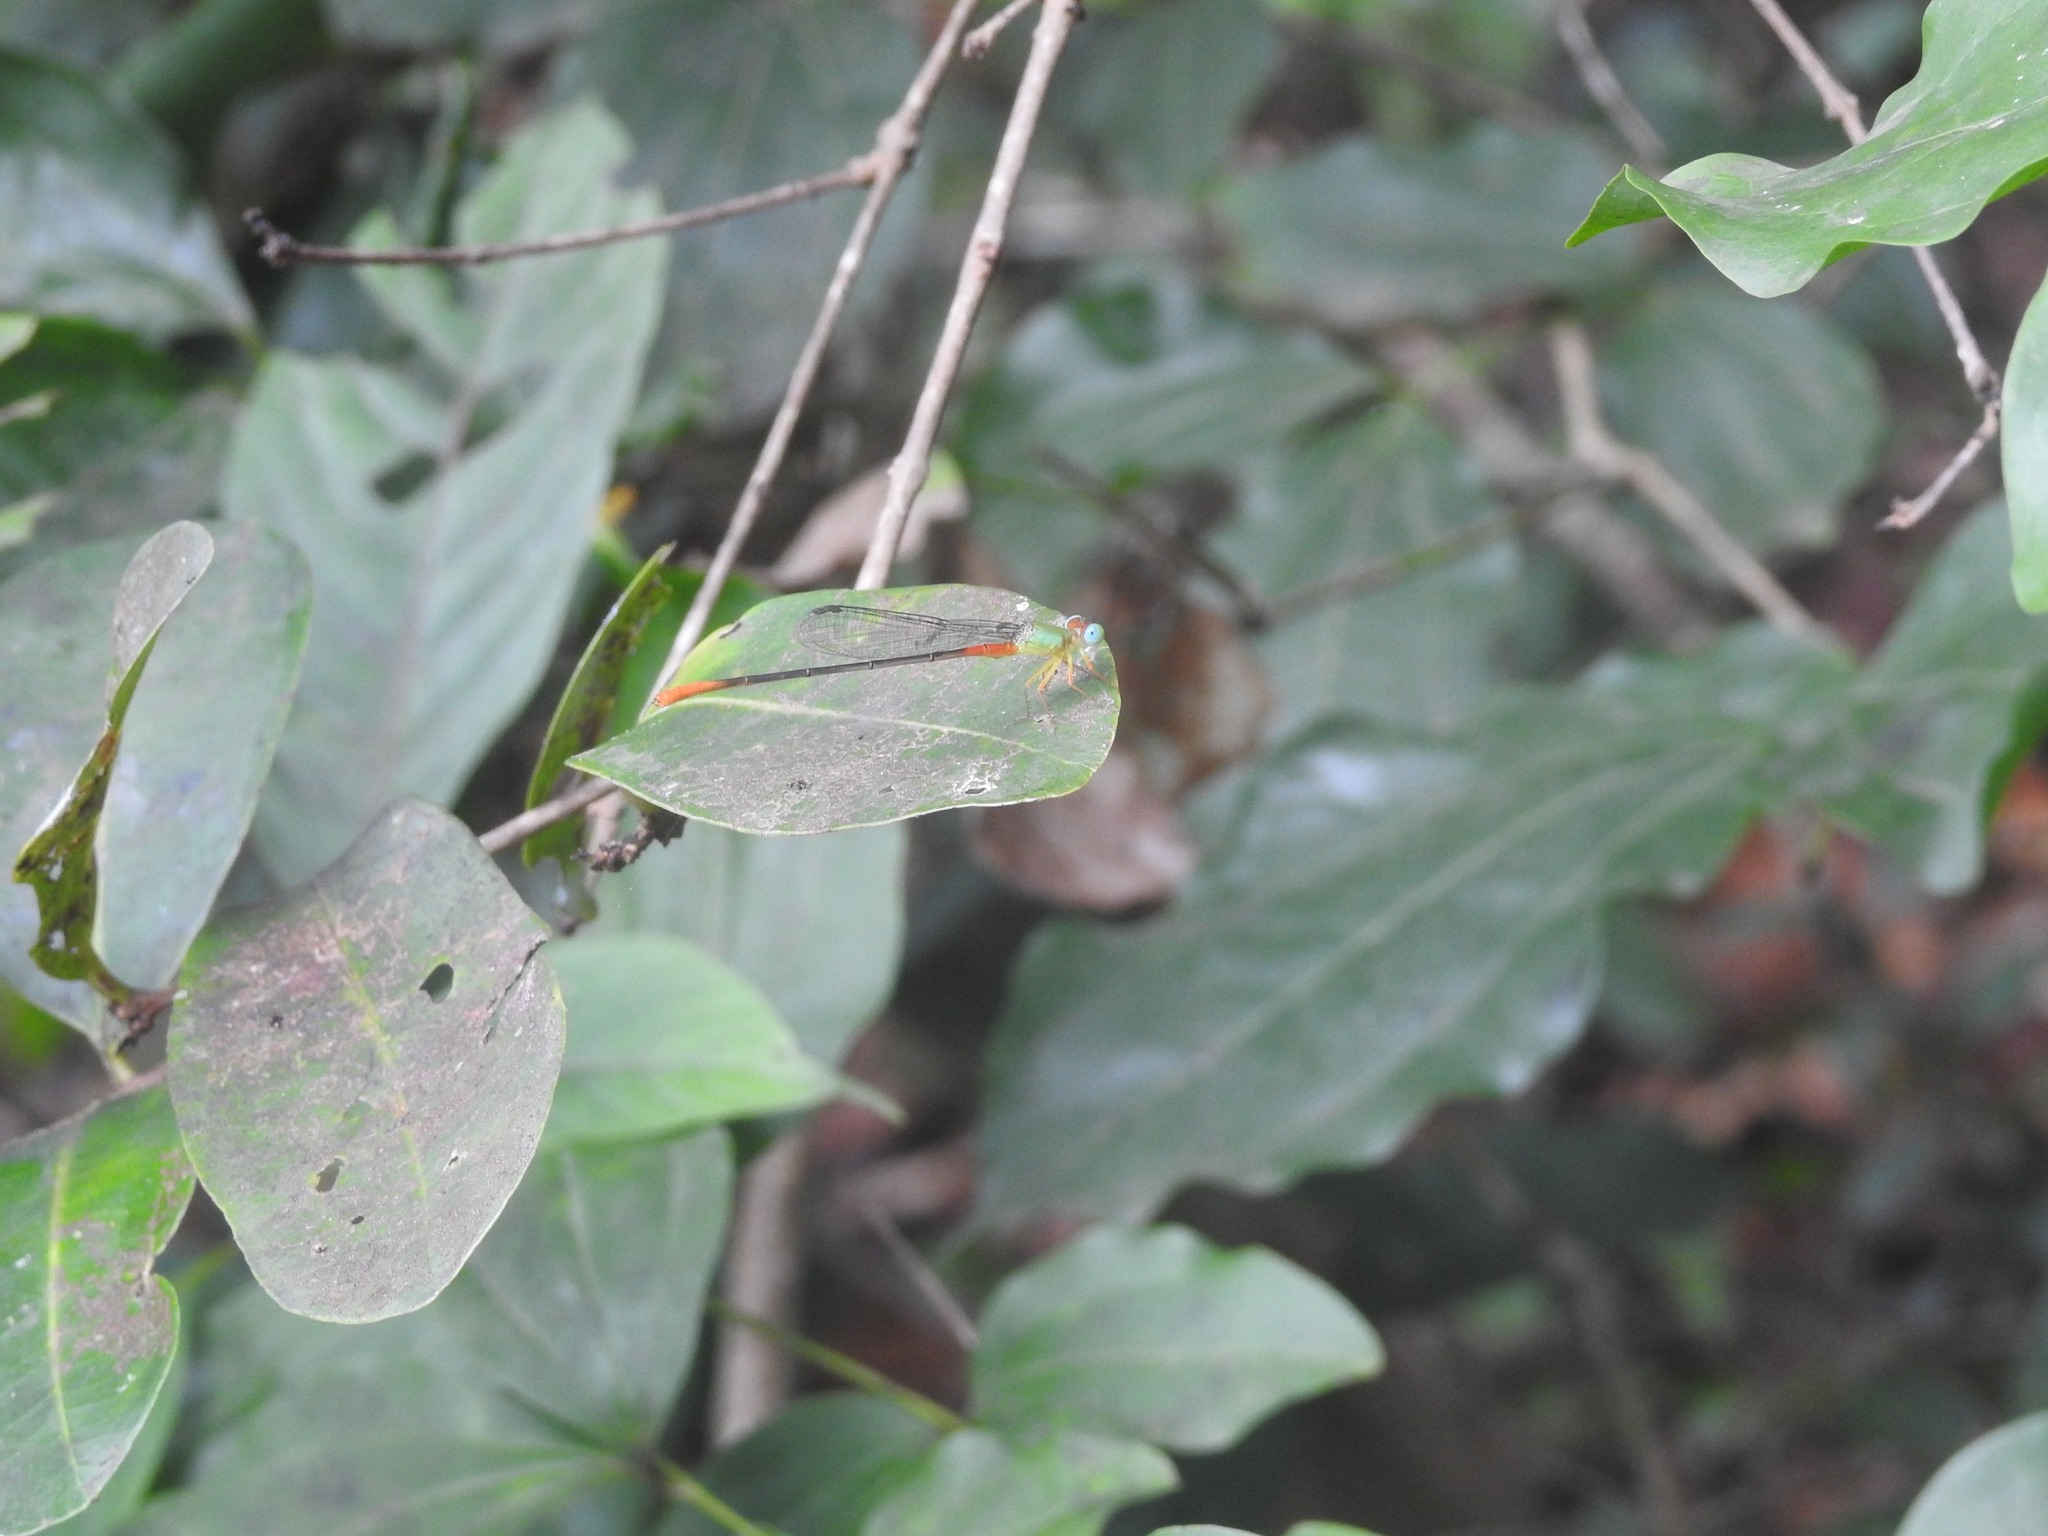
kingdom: Animalia
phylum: Arthropoda
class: Insecta
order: Odonata
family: Coenagrionidae
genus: Ceriagrion
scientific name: Ceriagrion cerinorubellum
